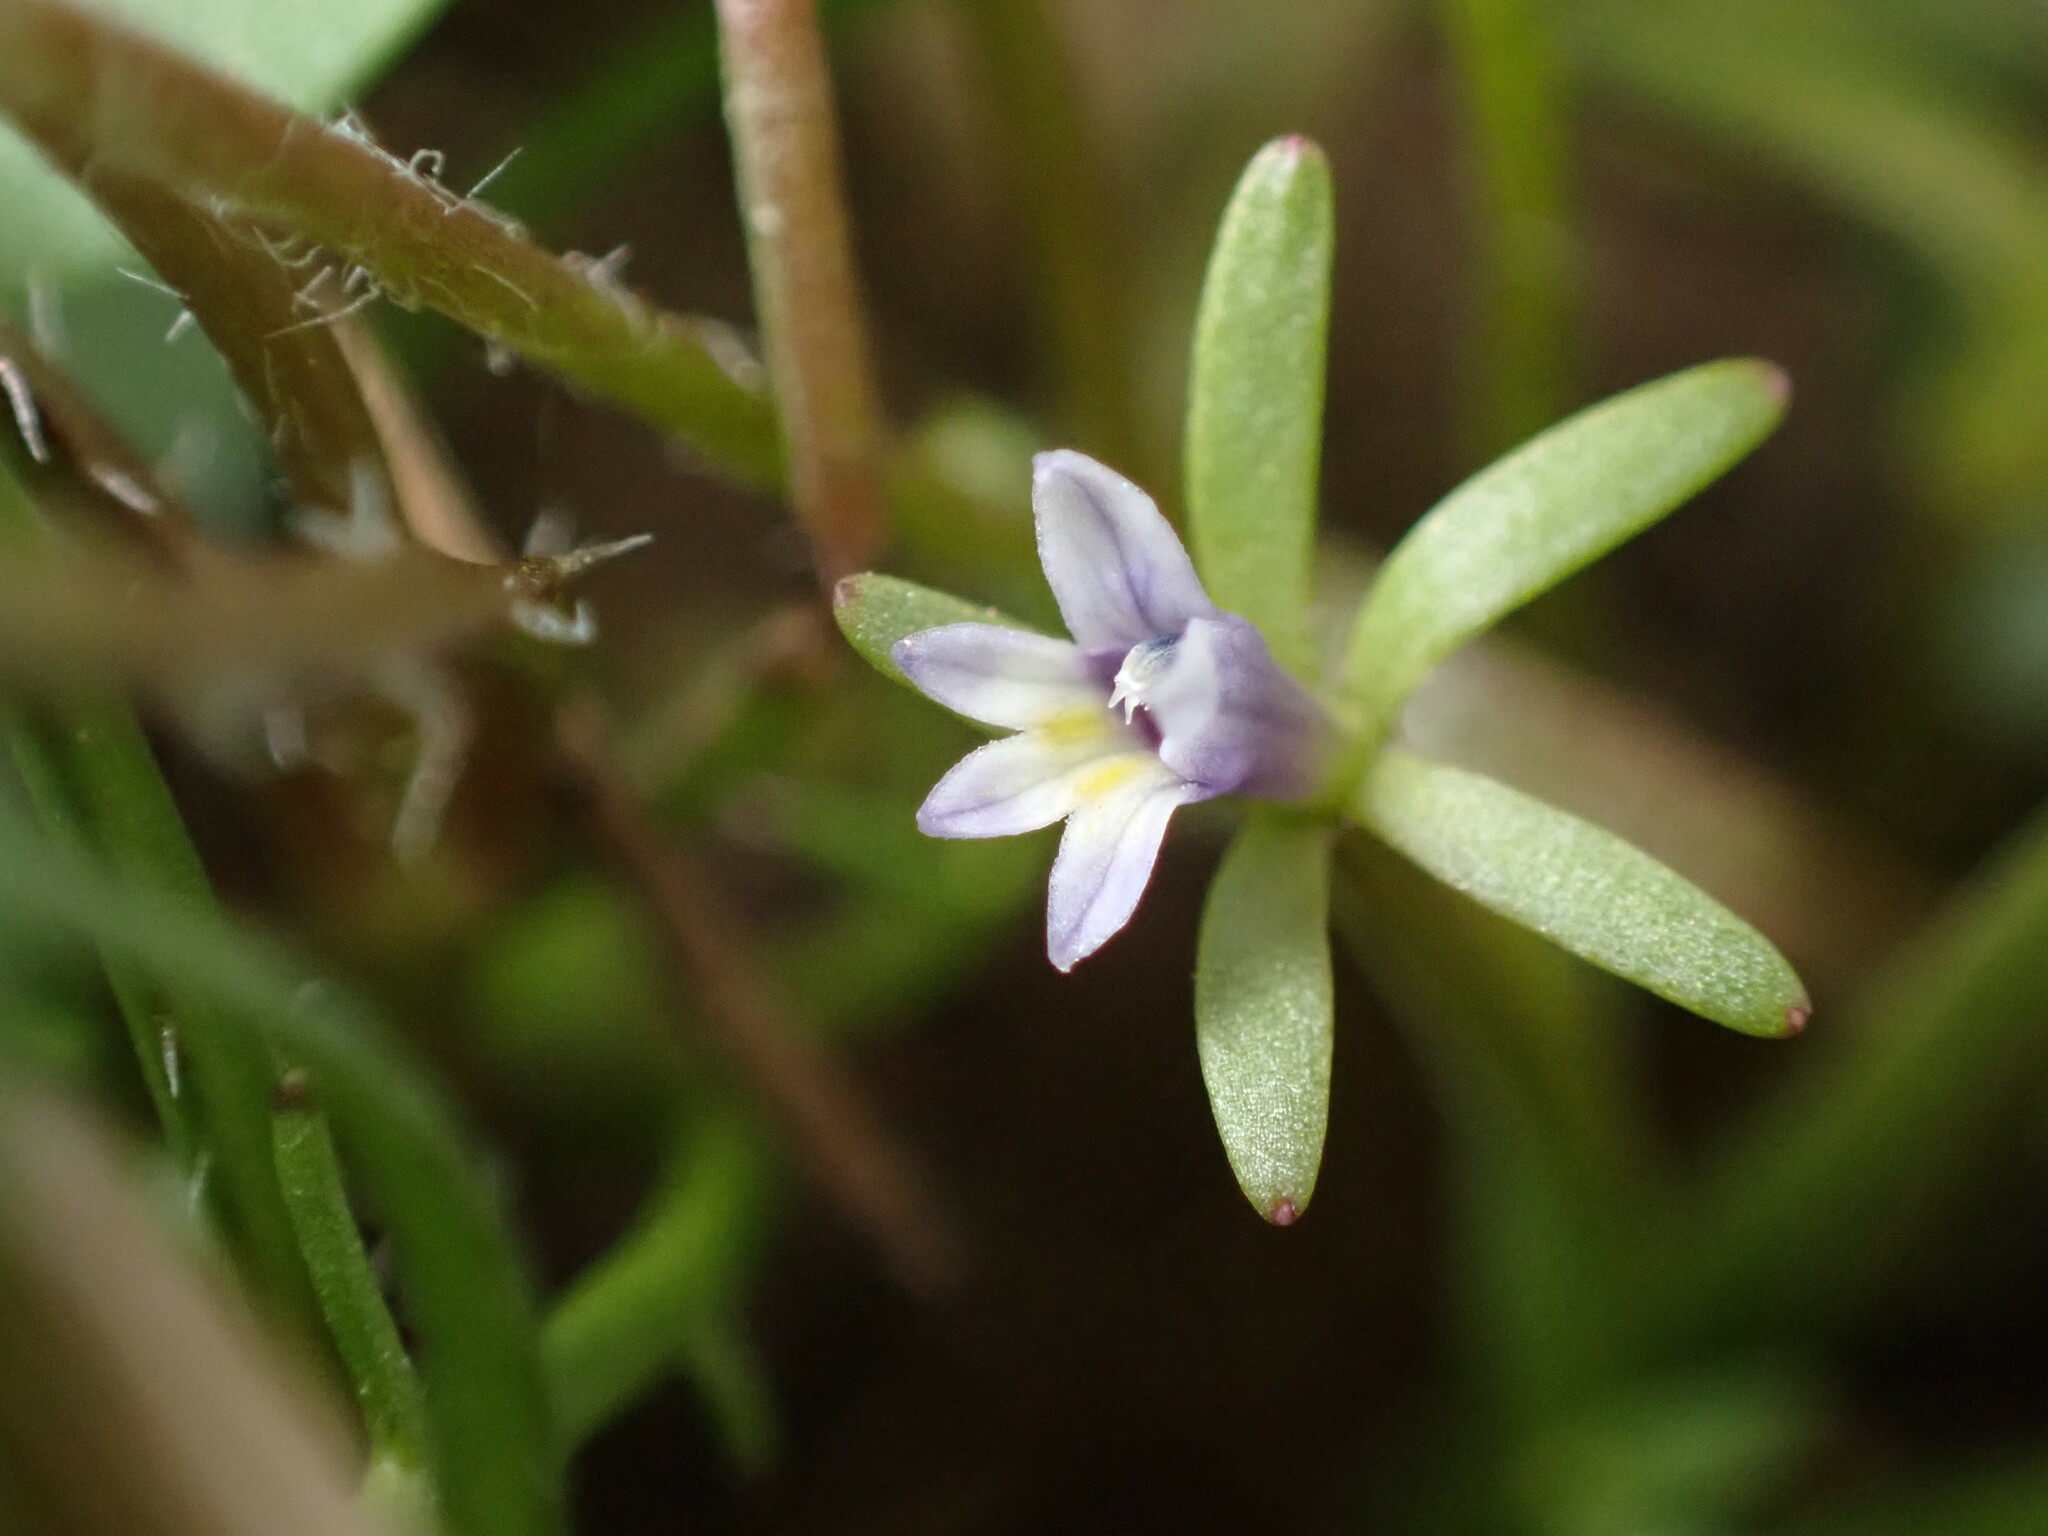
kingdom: Plantae
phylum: Tracheophyta
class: Magnoliopsida
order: Asterales
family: Campanulaceae
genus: Downingia
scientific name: Downingia pusilla
